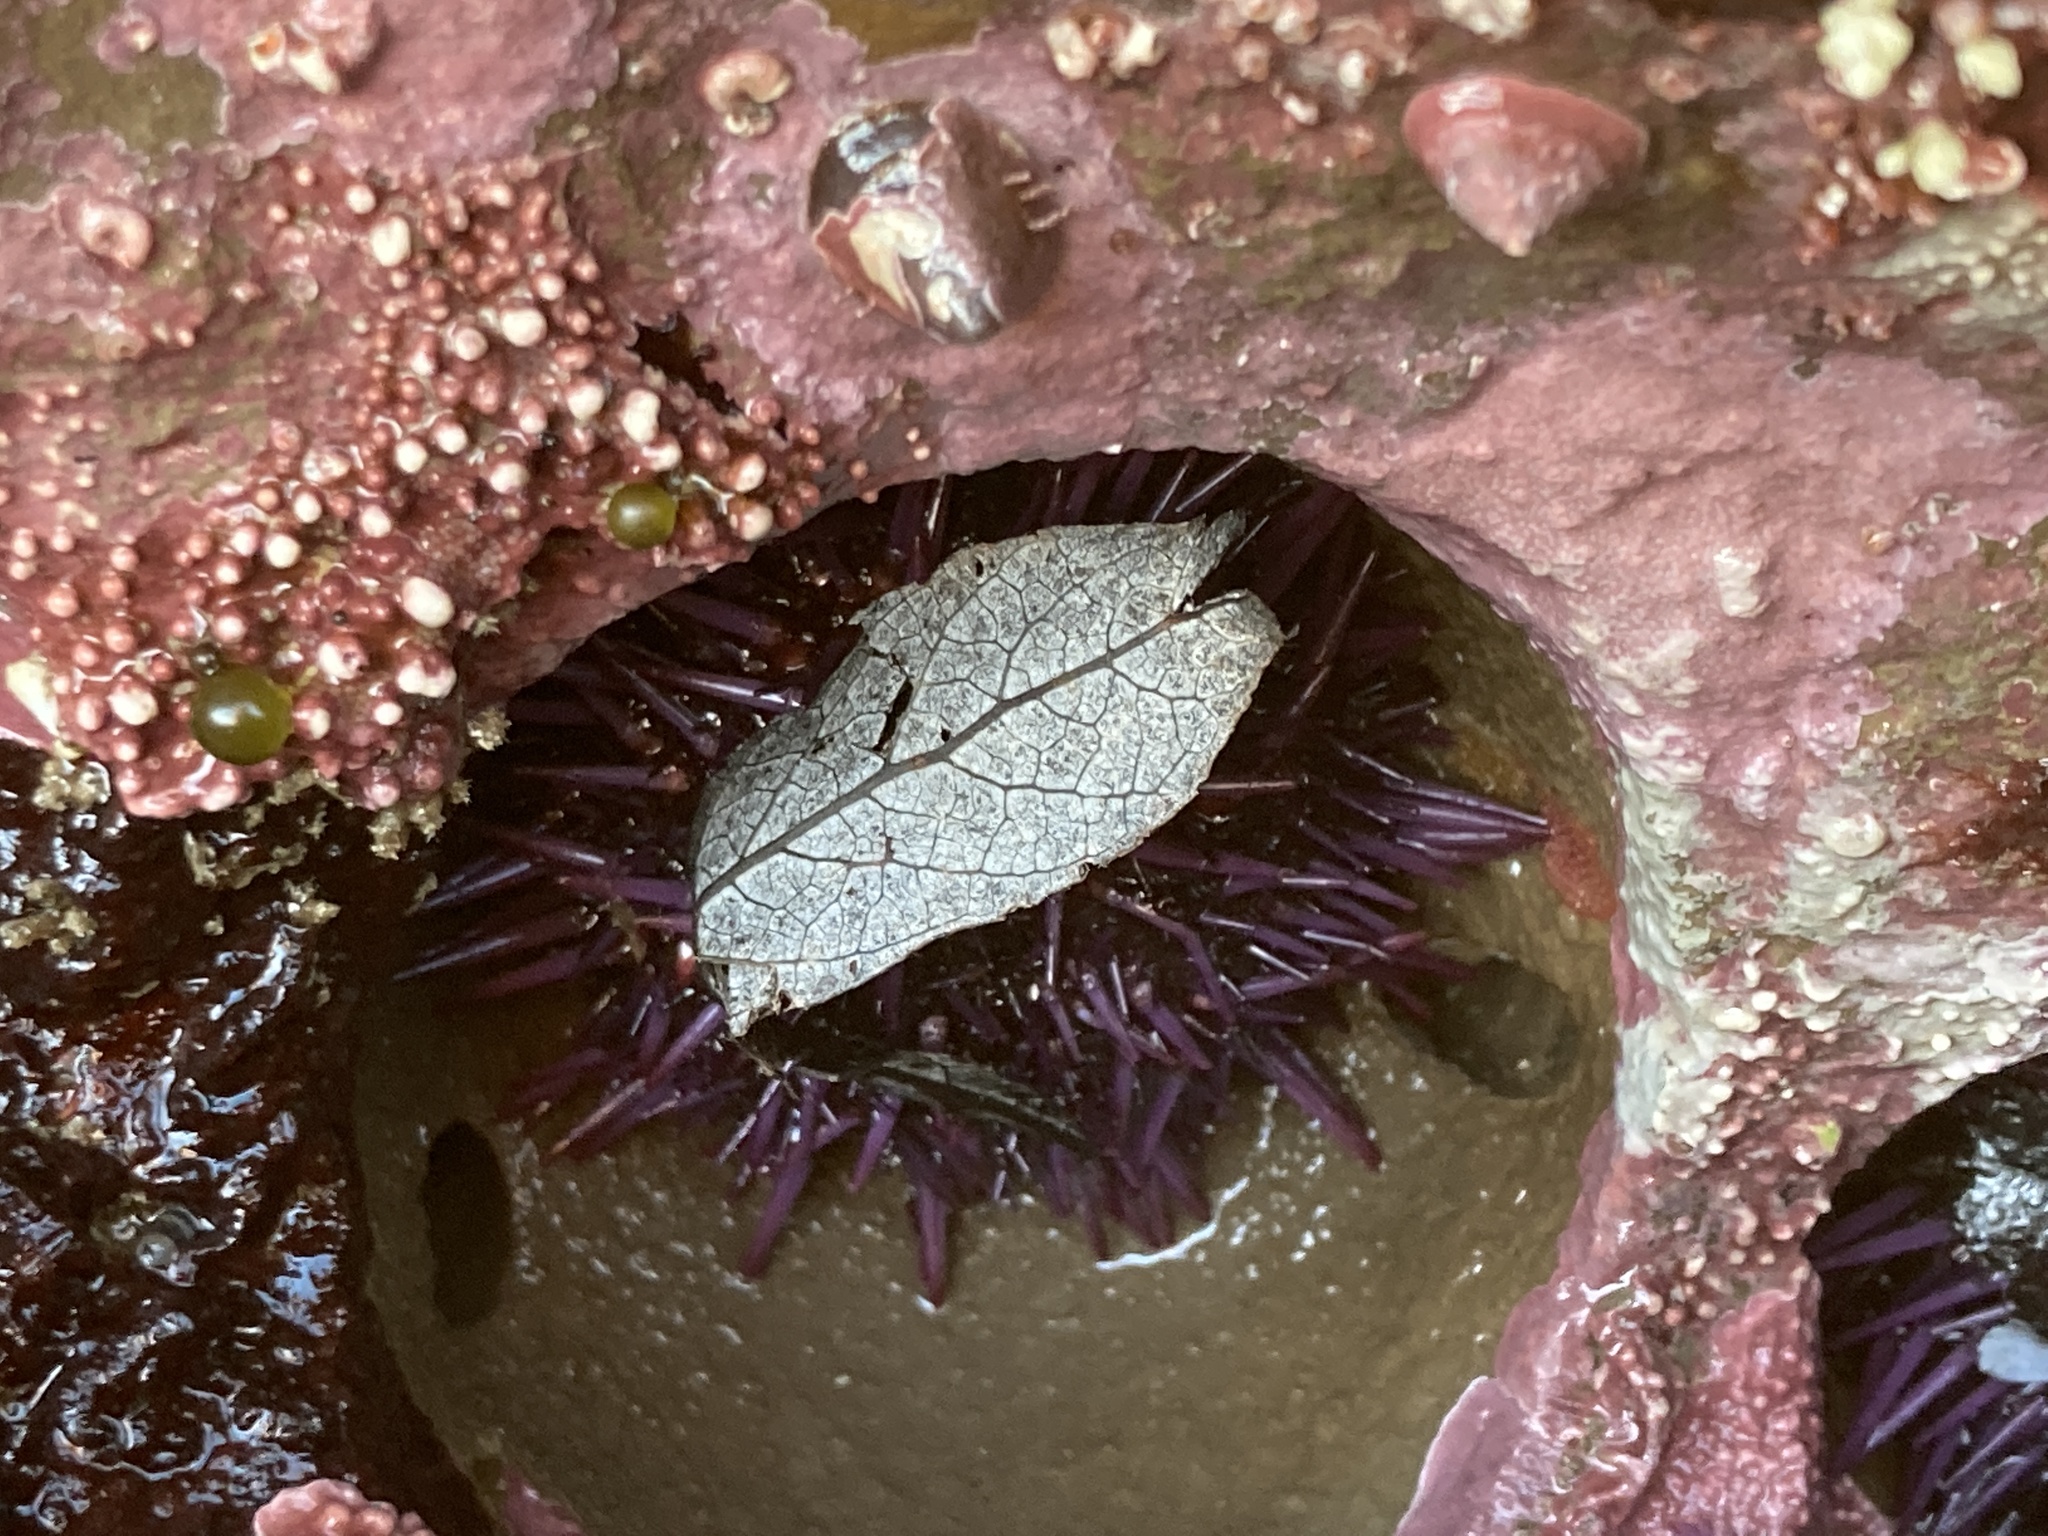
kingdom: Animalia
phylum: Echinodermata
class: Echinoidea
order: Camarodonta
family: Strongylocentrotidae
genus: Strongylocentrotus
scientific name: Strongylocentrotus purpuratus
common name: Purple sea urchin
